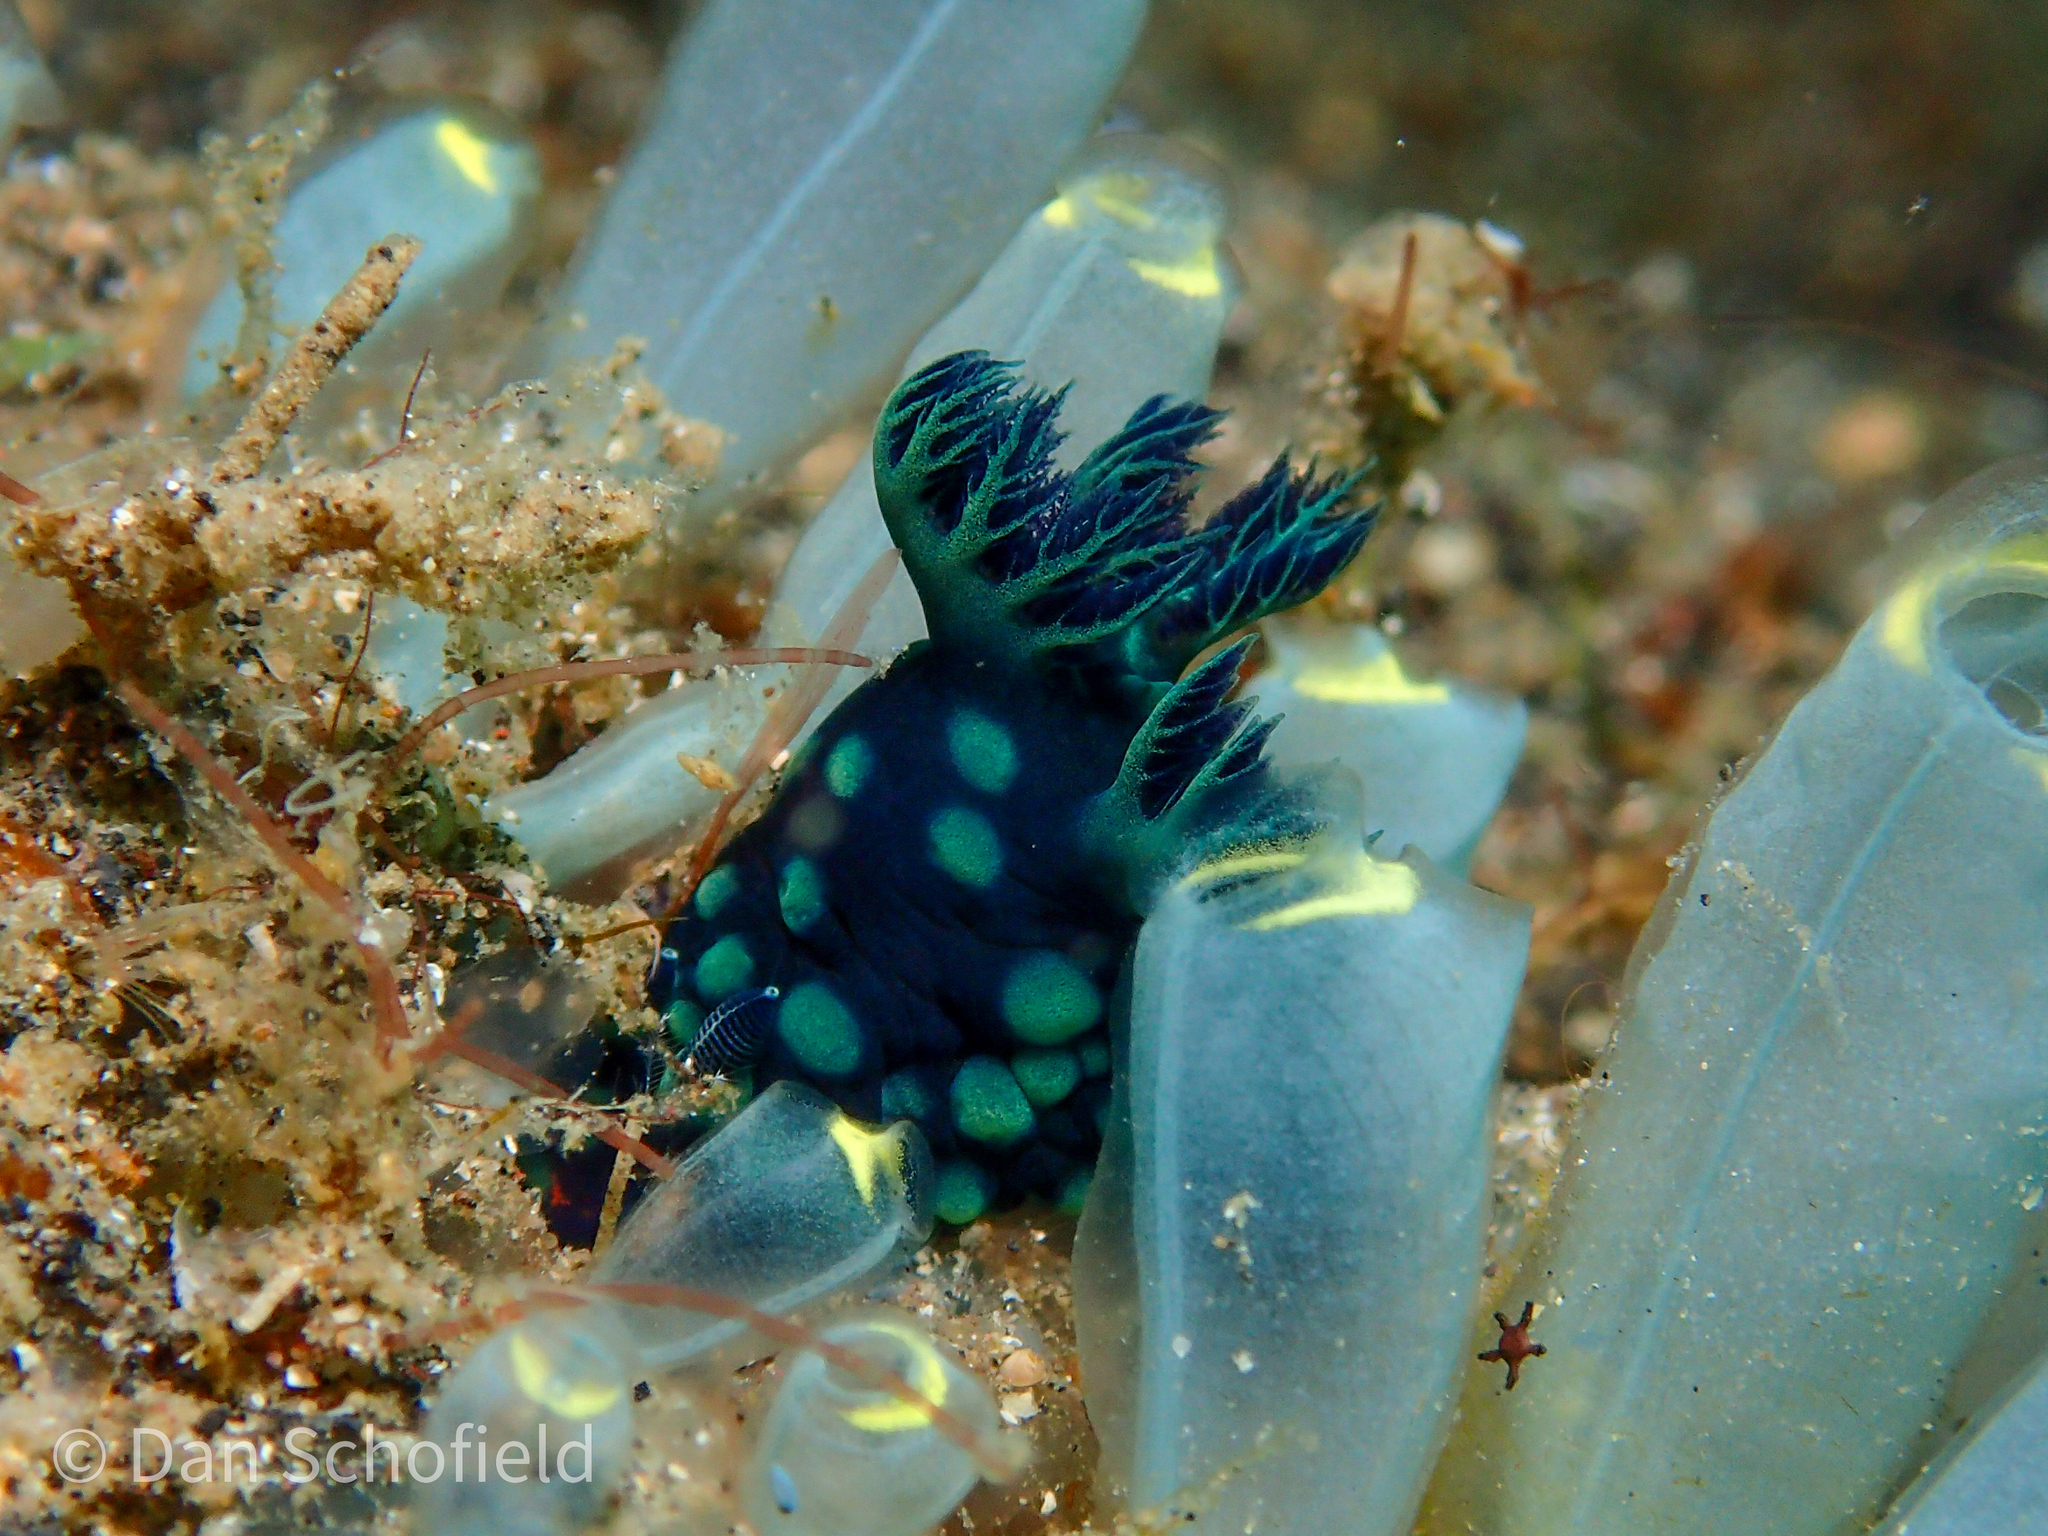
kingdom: Animalia
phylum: Mollusca
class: Gastropoda
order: Nudibranchia
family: Polyceridae
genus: Nembrotha
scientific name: Nembrotha cristata
